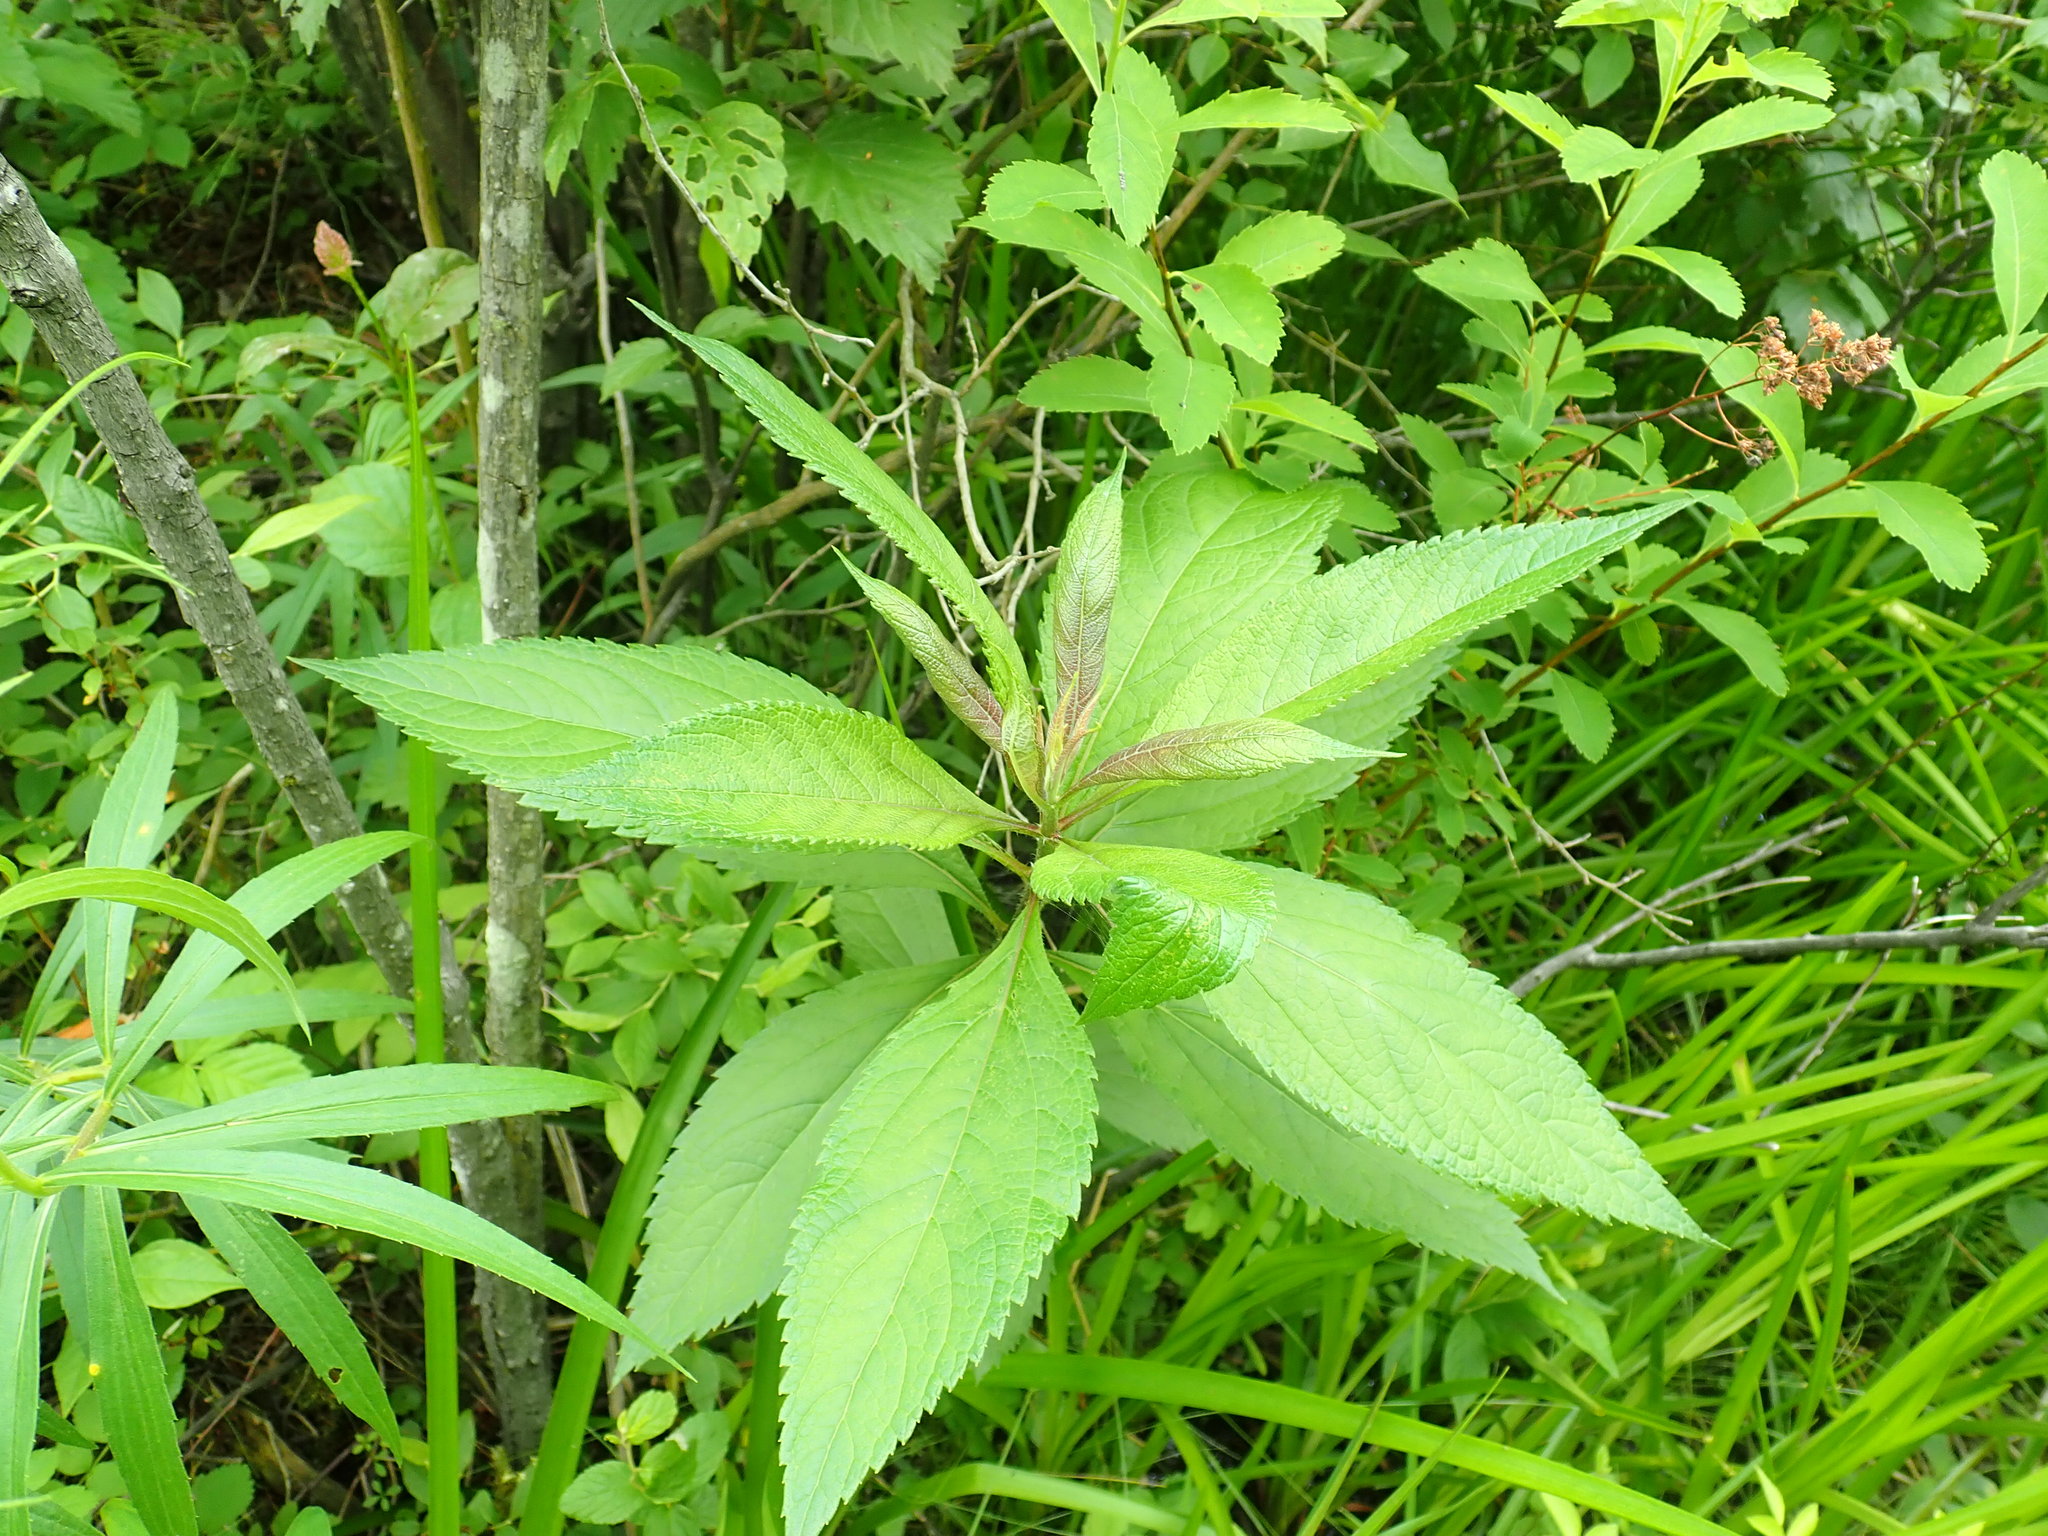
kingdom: Plantae
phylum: Tracheophyta
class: Magnoliopsida
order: Asterales
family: Asteraceae
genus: Eutrochium
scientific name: Eutrochium
